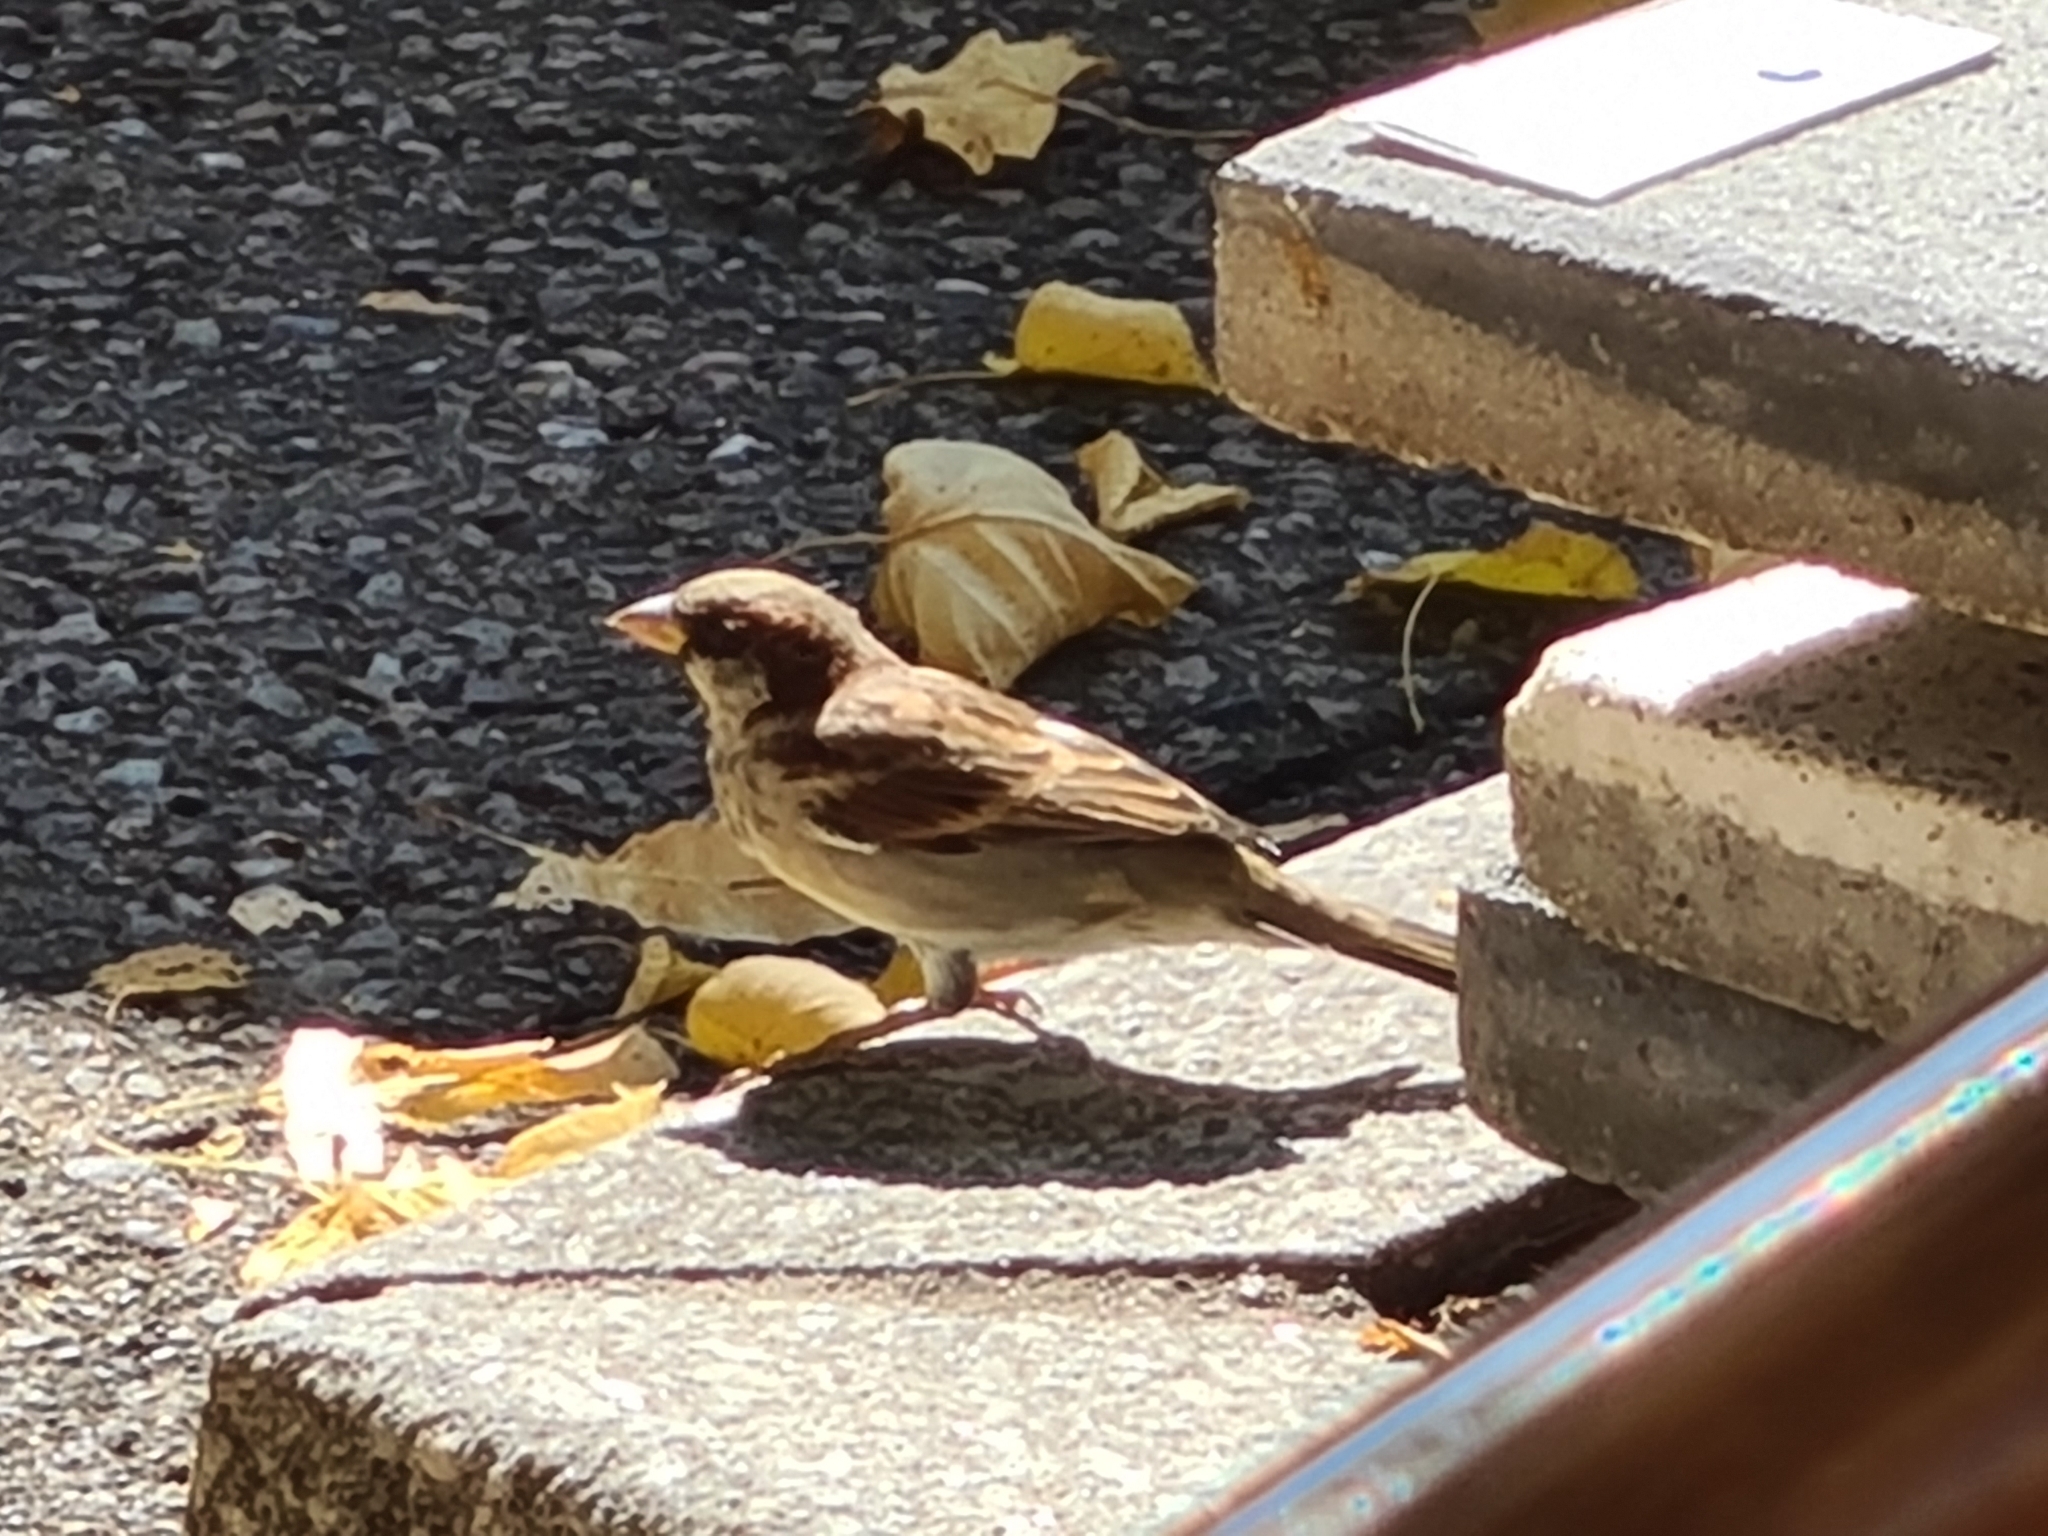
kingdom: Animalia
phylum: Chordata
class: Aves
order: Passeriformes
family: Passeridae
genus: Passer
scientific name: Passer domesticus
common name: House sparrow
